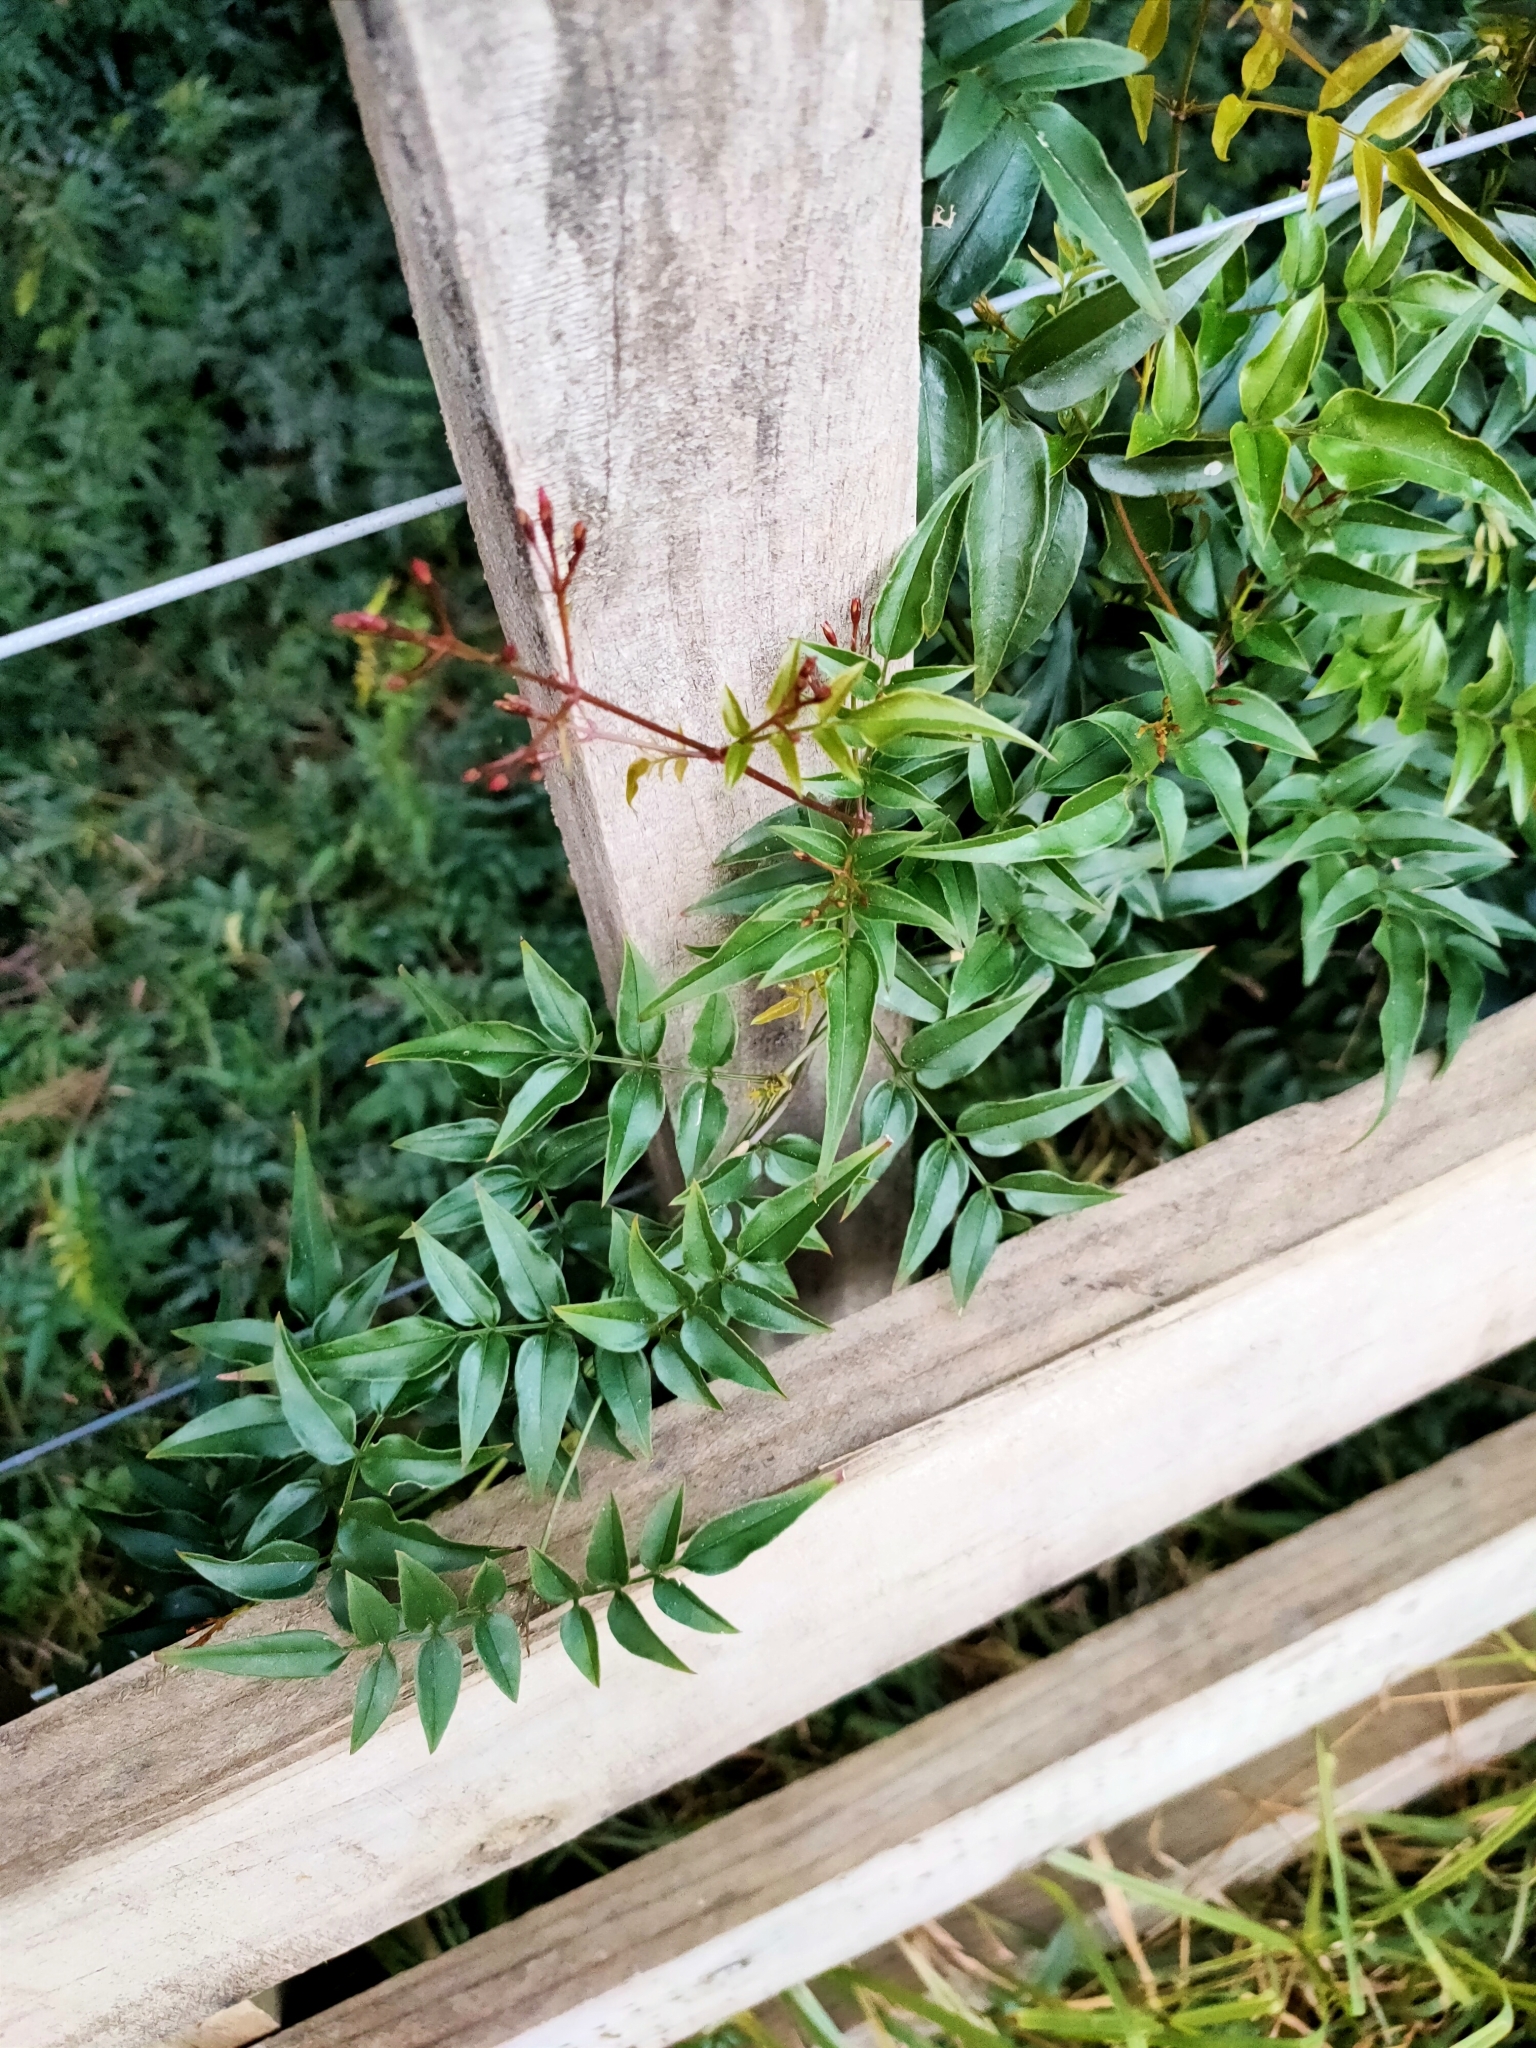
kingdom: Plantae
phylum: Tracheophyta
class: Magnoliopsida
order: Lamiales
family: Oleaceae
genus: Jasminum
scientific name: Jasminum polyanthum
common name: Pink jasmine
